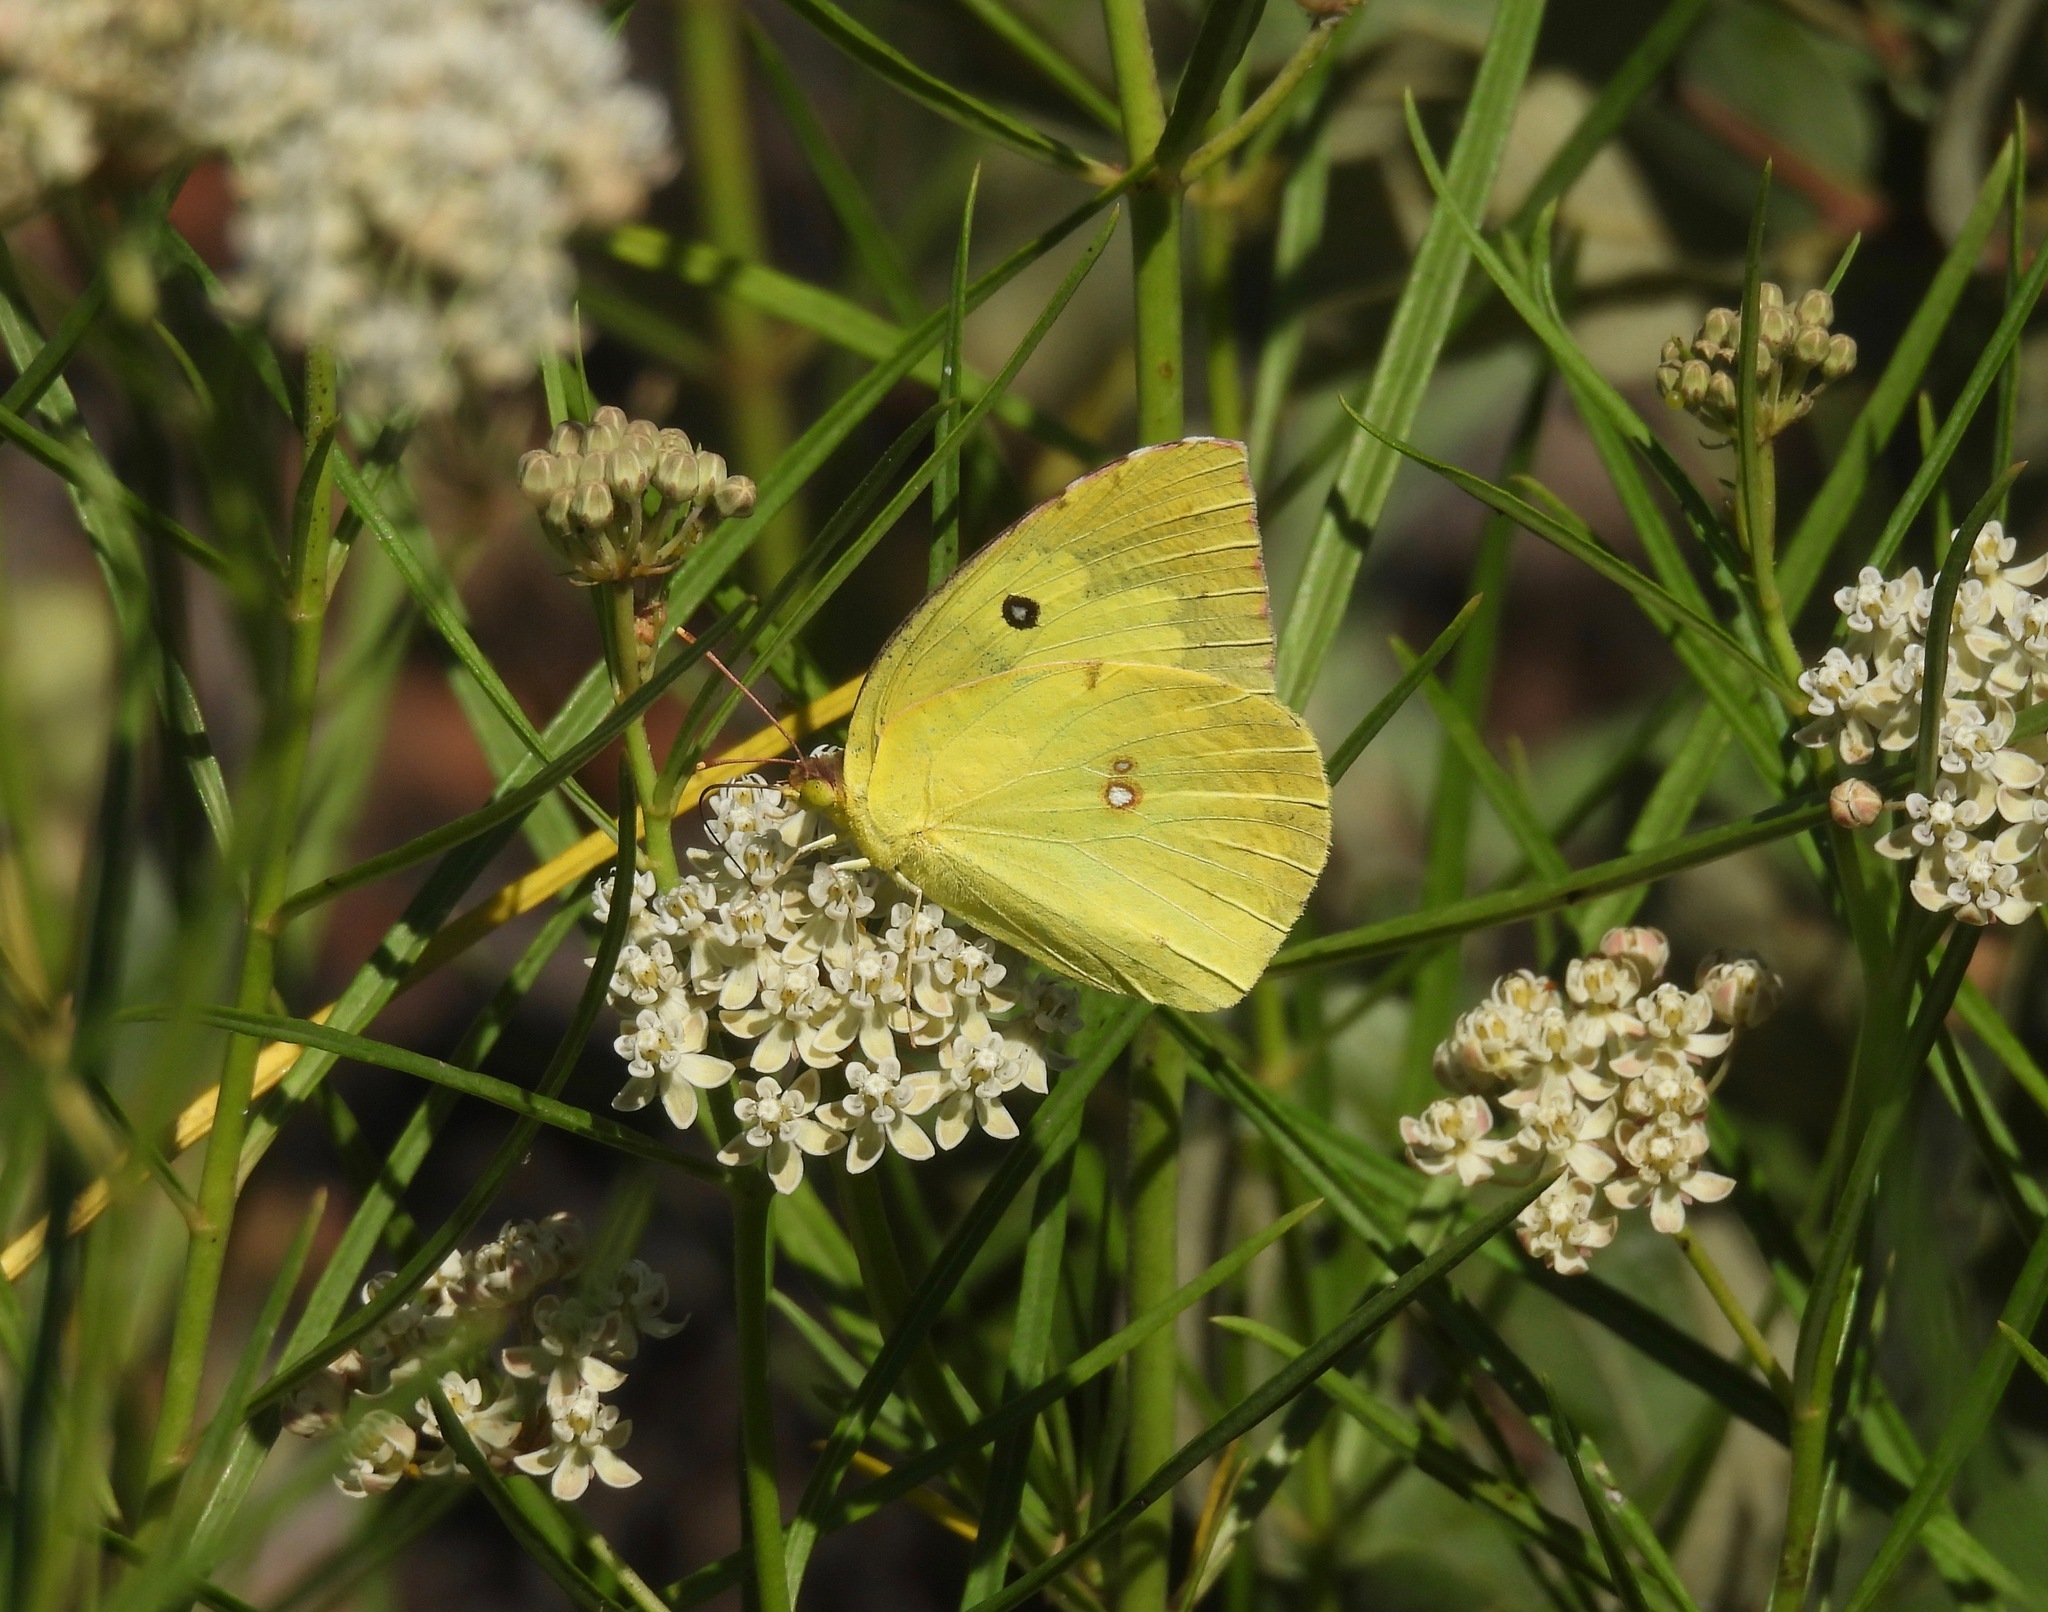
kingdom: Animalia
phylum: Arthropoda
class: Insecta
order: Lepidoptera
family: Pieridae
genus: Zerene
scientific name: Zerene cesonia
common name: Southern dogface
